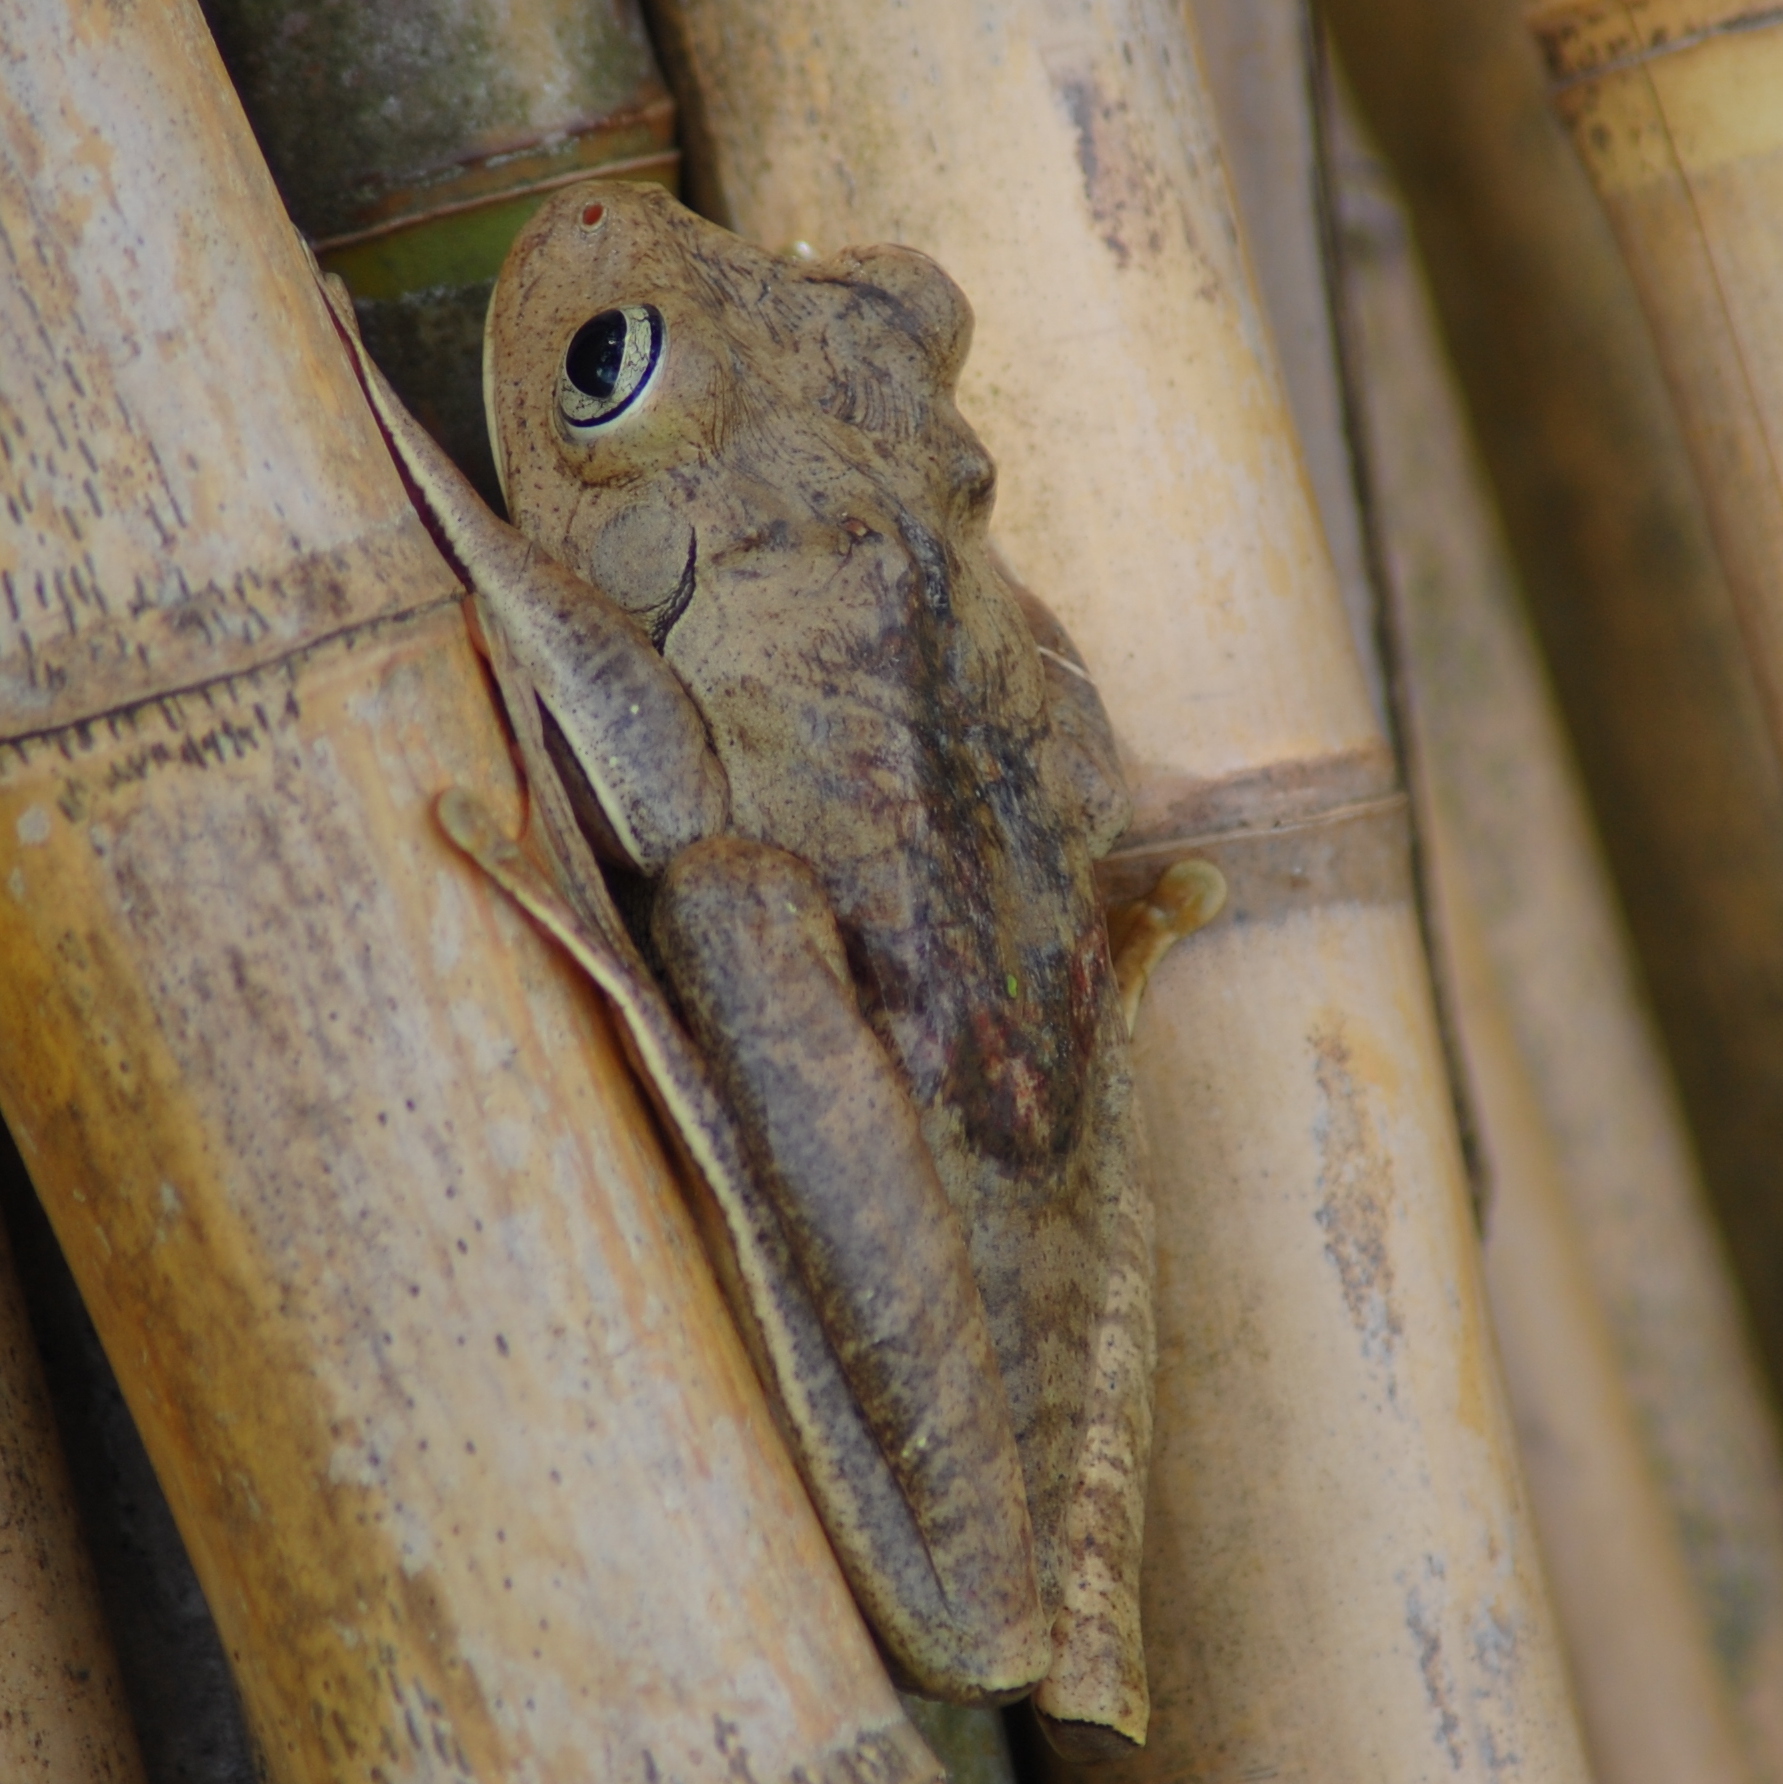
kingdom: Animalia
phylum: Chordata
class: Amphibia
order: Anura
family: Hylidae
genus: Boana
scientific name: Boana faber
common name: Blacksmith tree frog
